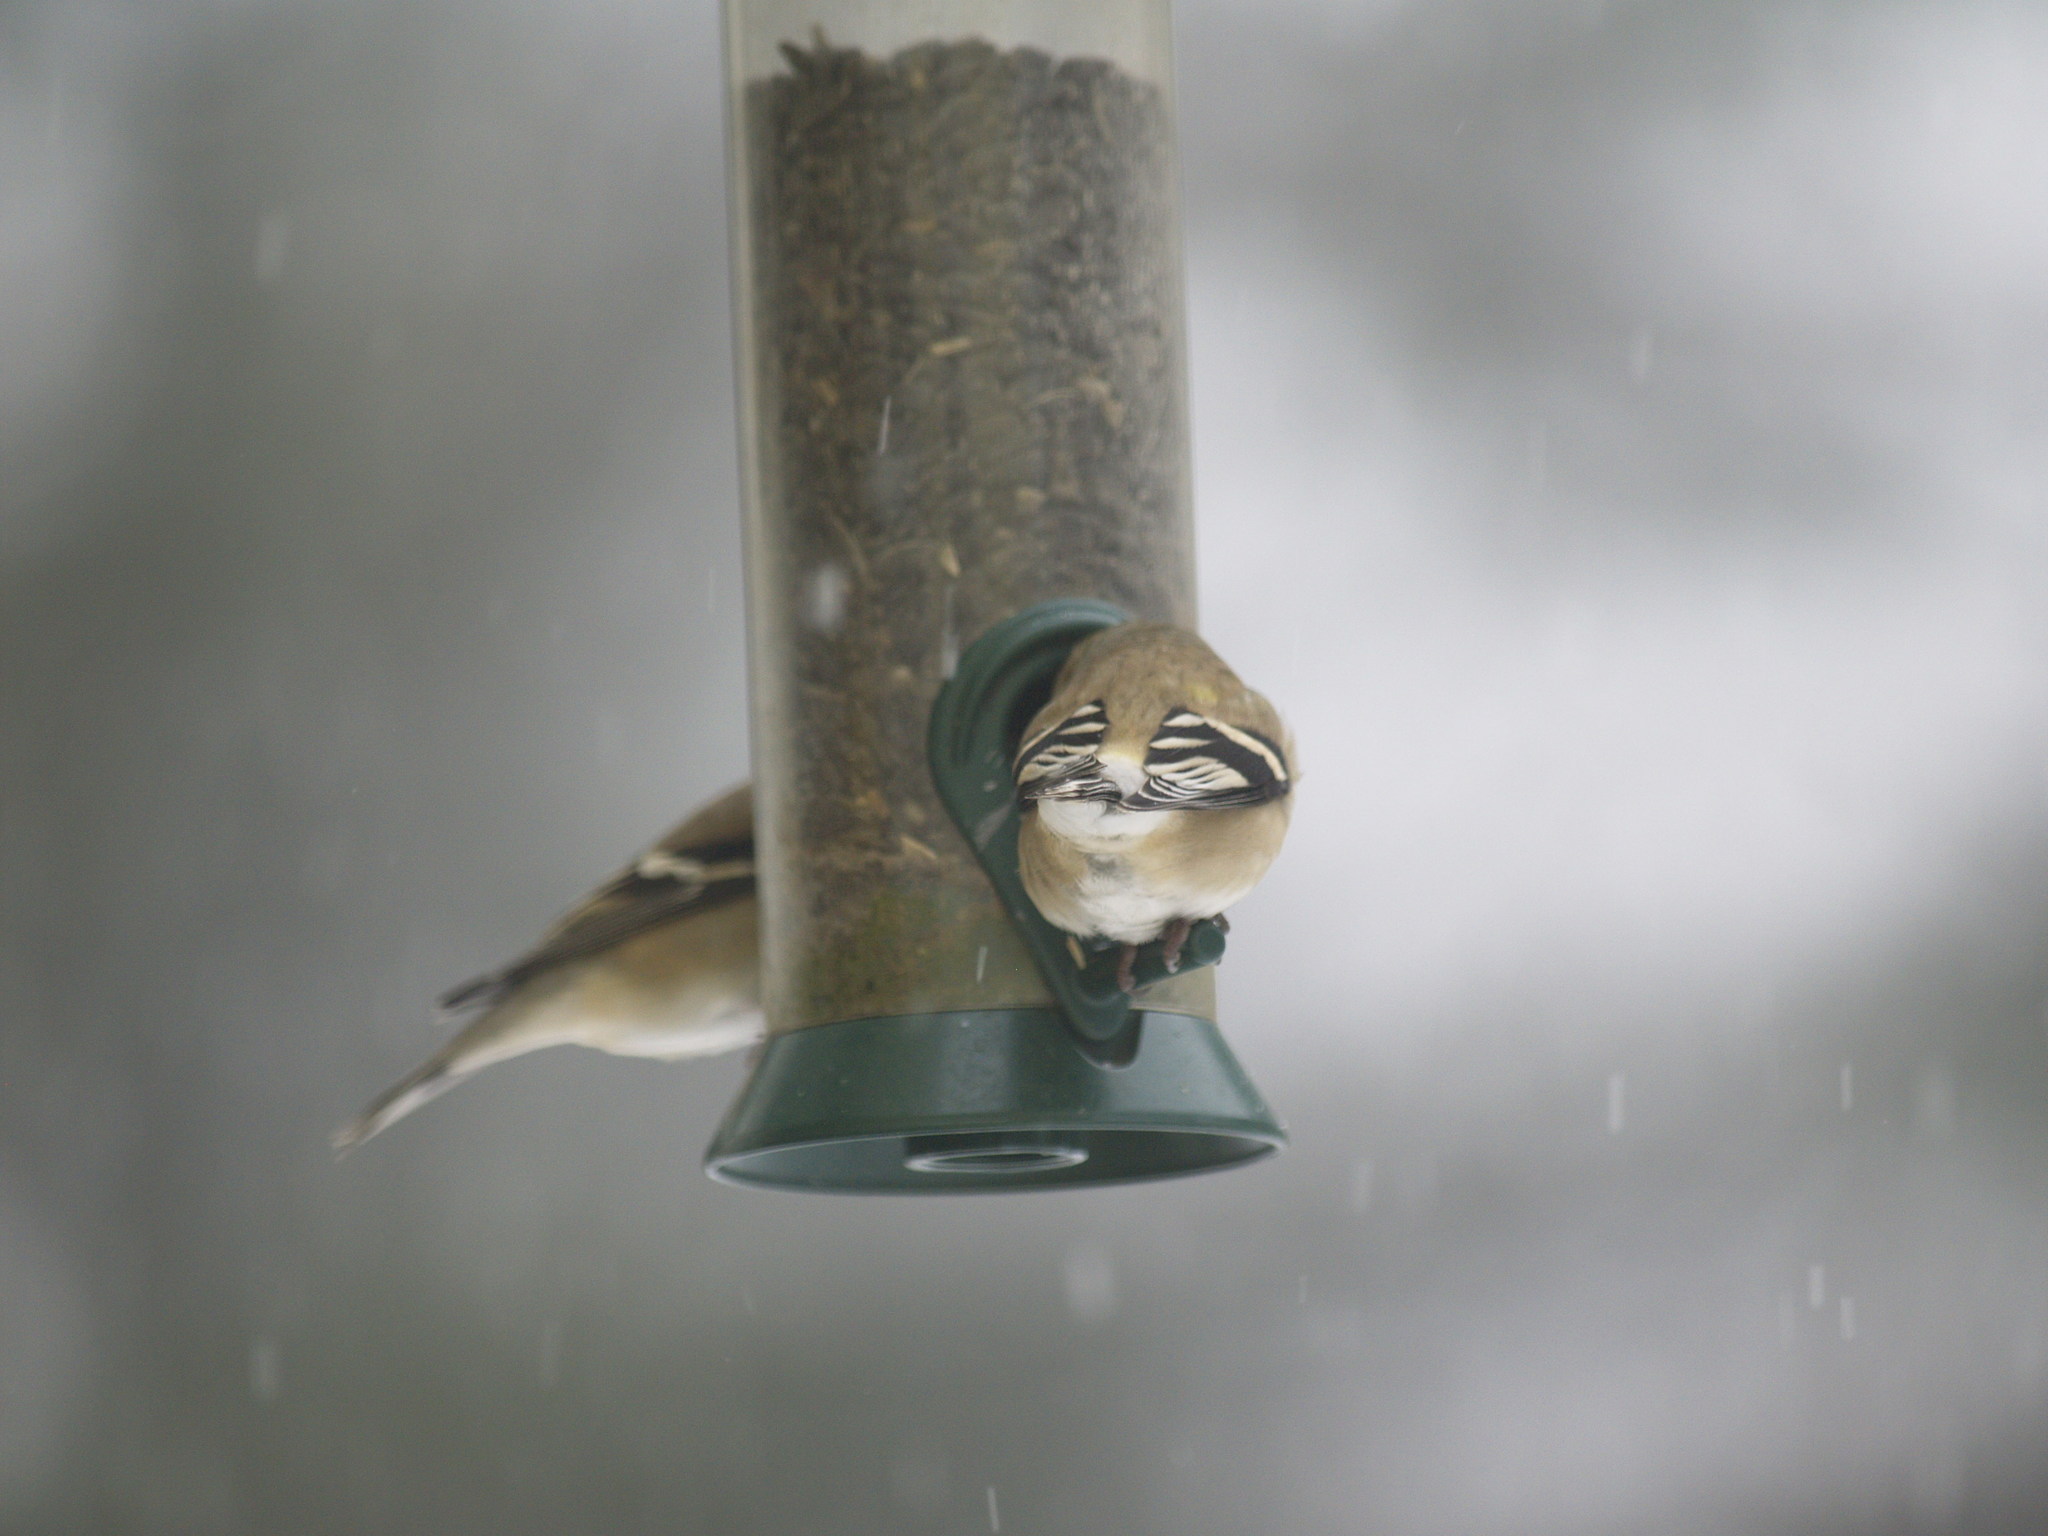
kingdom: Animalia
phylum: Chordata
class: Aves
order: Passeriformes
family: Fringillidae
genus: Spinus
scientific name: Spinus tristis
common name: American goldfinch
